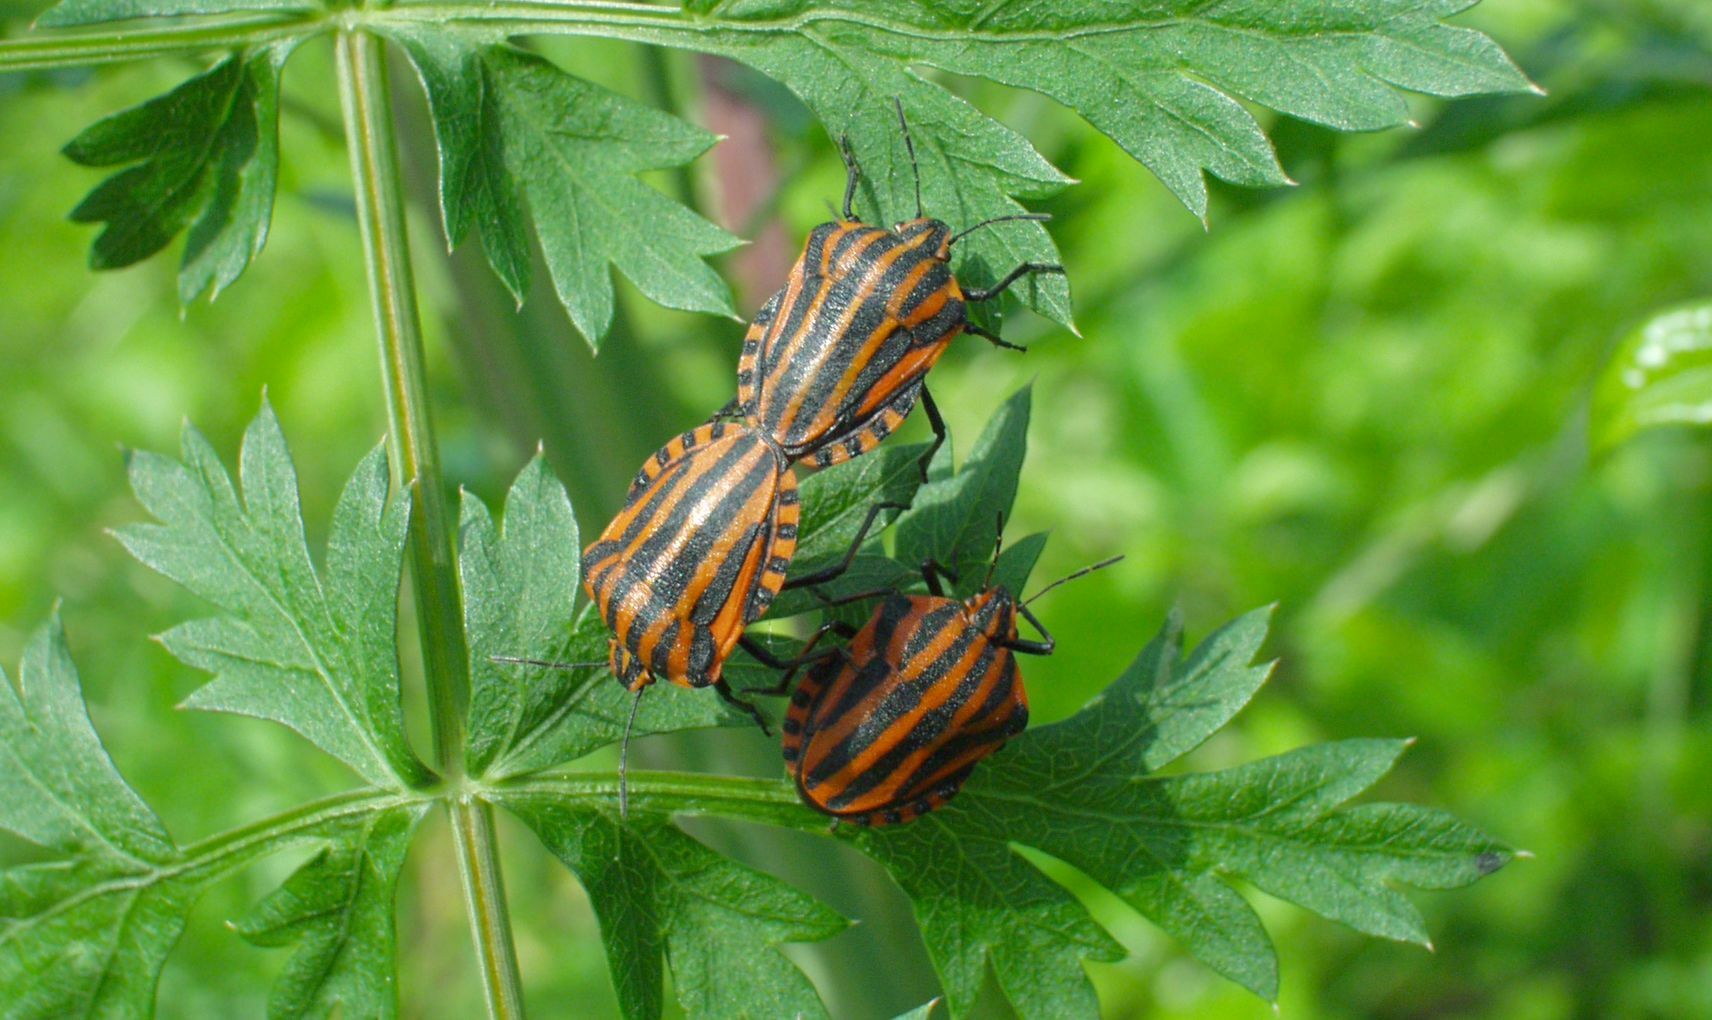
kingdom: Animalia
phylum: Arthropoda
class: Insecta
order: Hemiptera
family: Pentatomidae
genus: Graphosoma
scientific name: Graphosoma italicum
